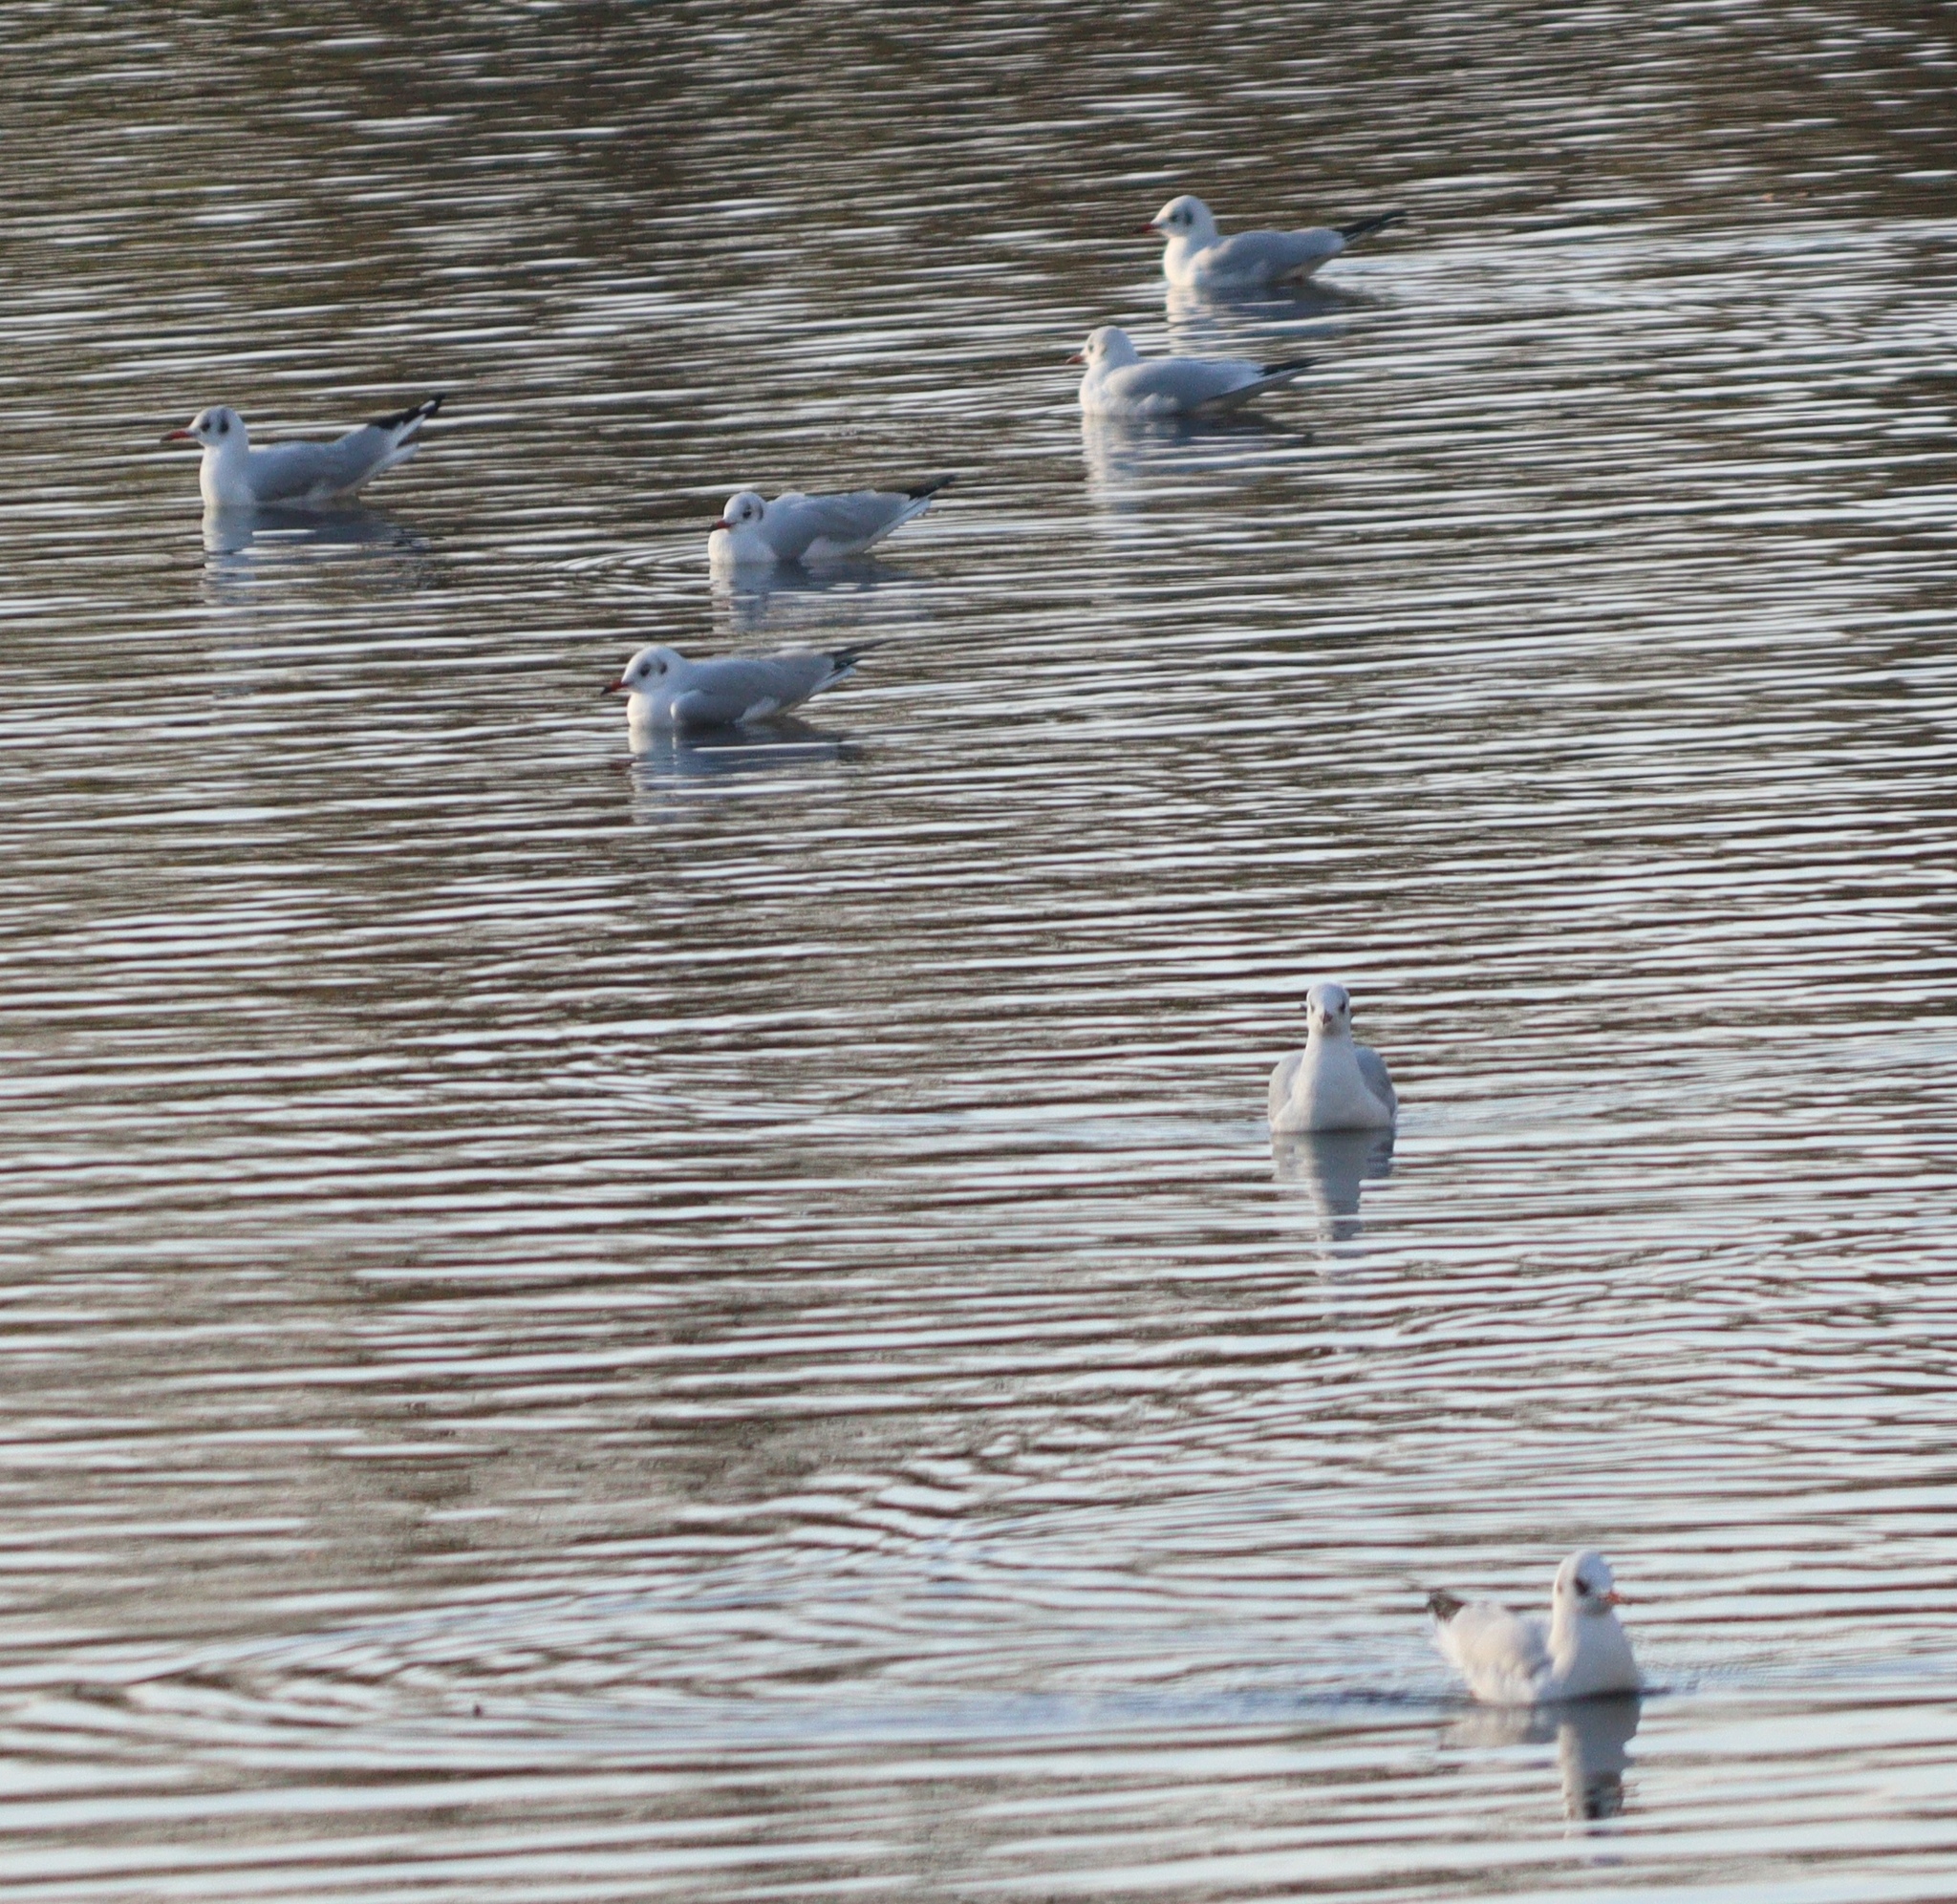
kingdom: Animalia
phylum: Chordata
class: Aves
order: Charadriiformes
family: Laridae
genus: Chroicocephalus
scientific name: Chroicocephalus ridibundus
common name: Black-headed gull
